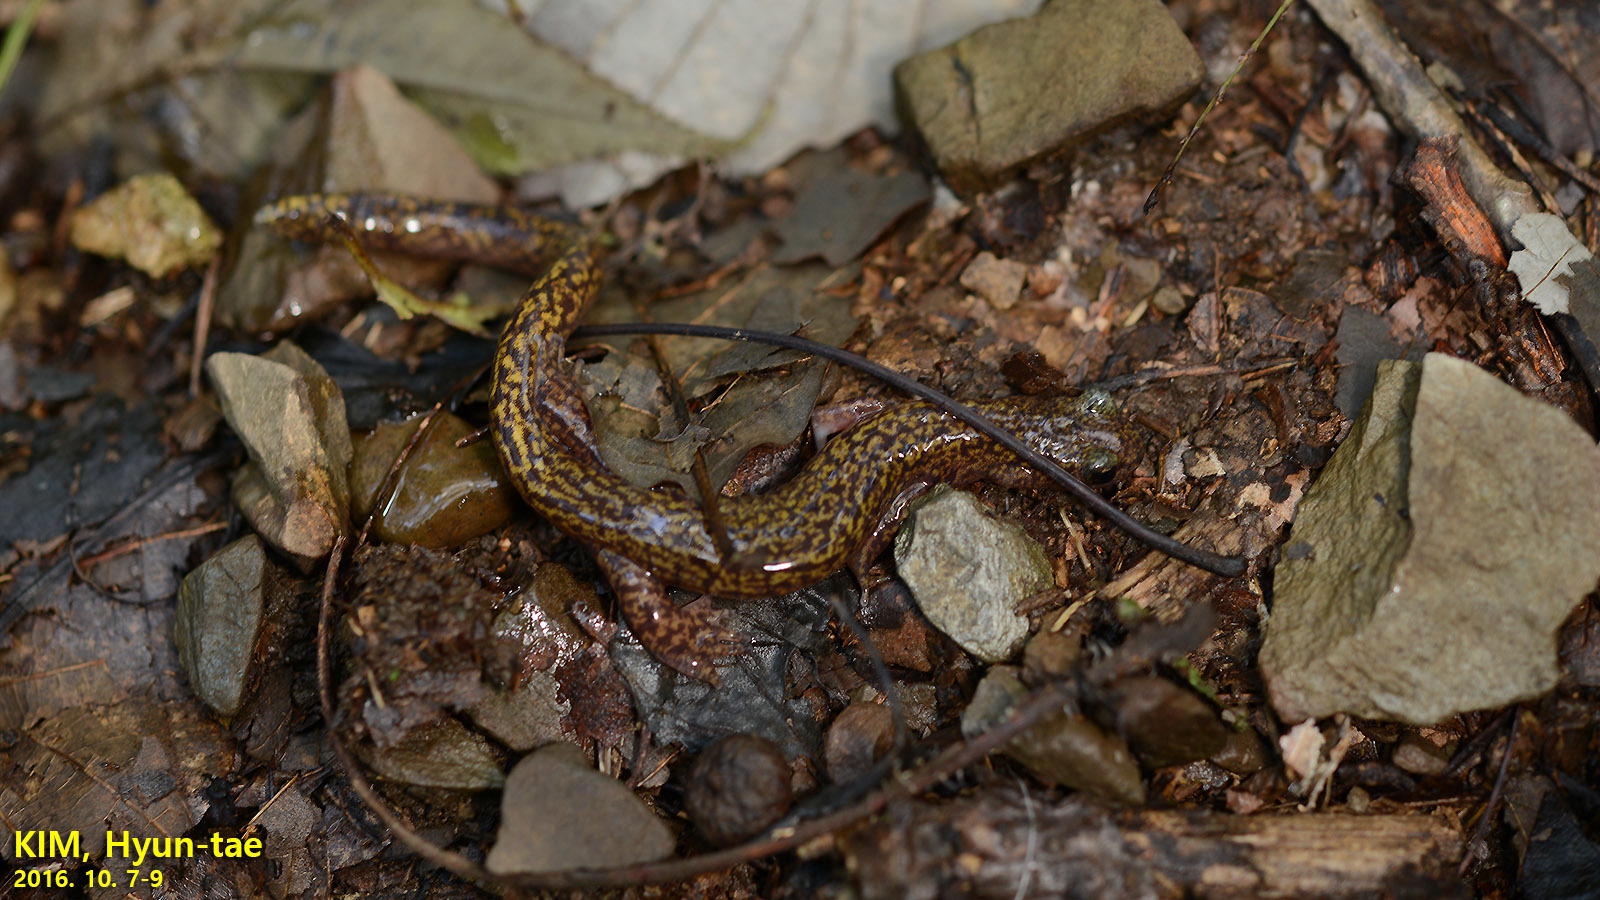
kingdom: Animalia
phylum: Chordata
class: Amphibia
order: Caudata
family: Hynobiidae
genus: Onychodactylus
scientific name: Onychodactylus koreanus
